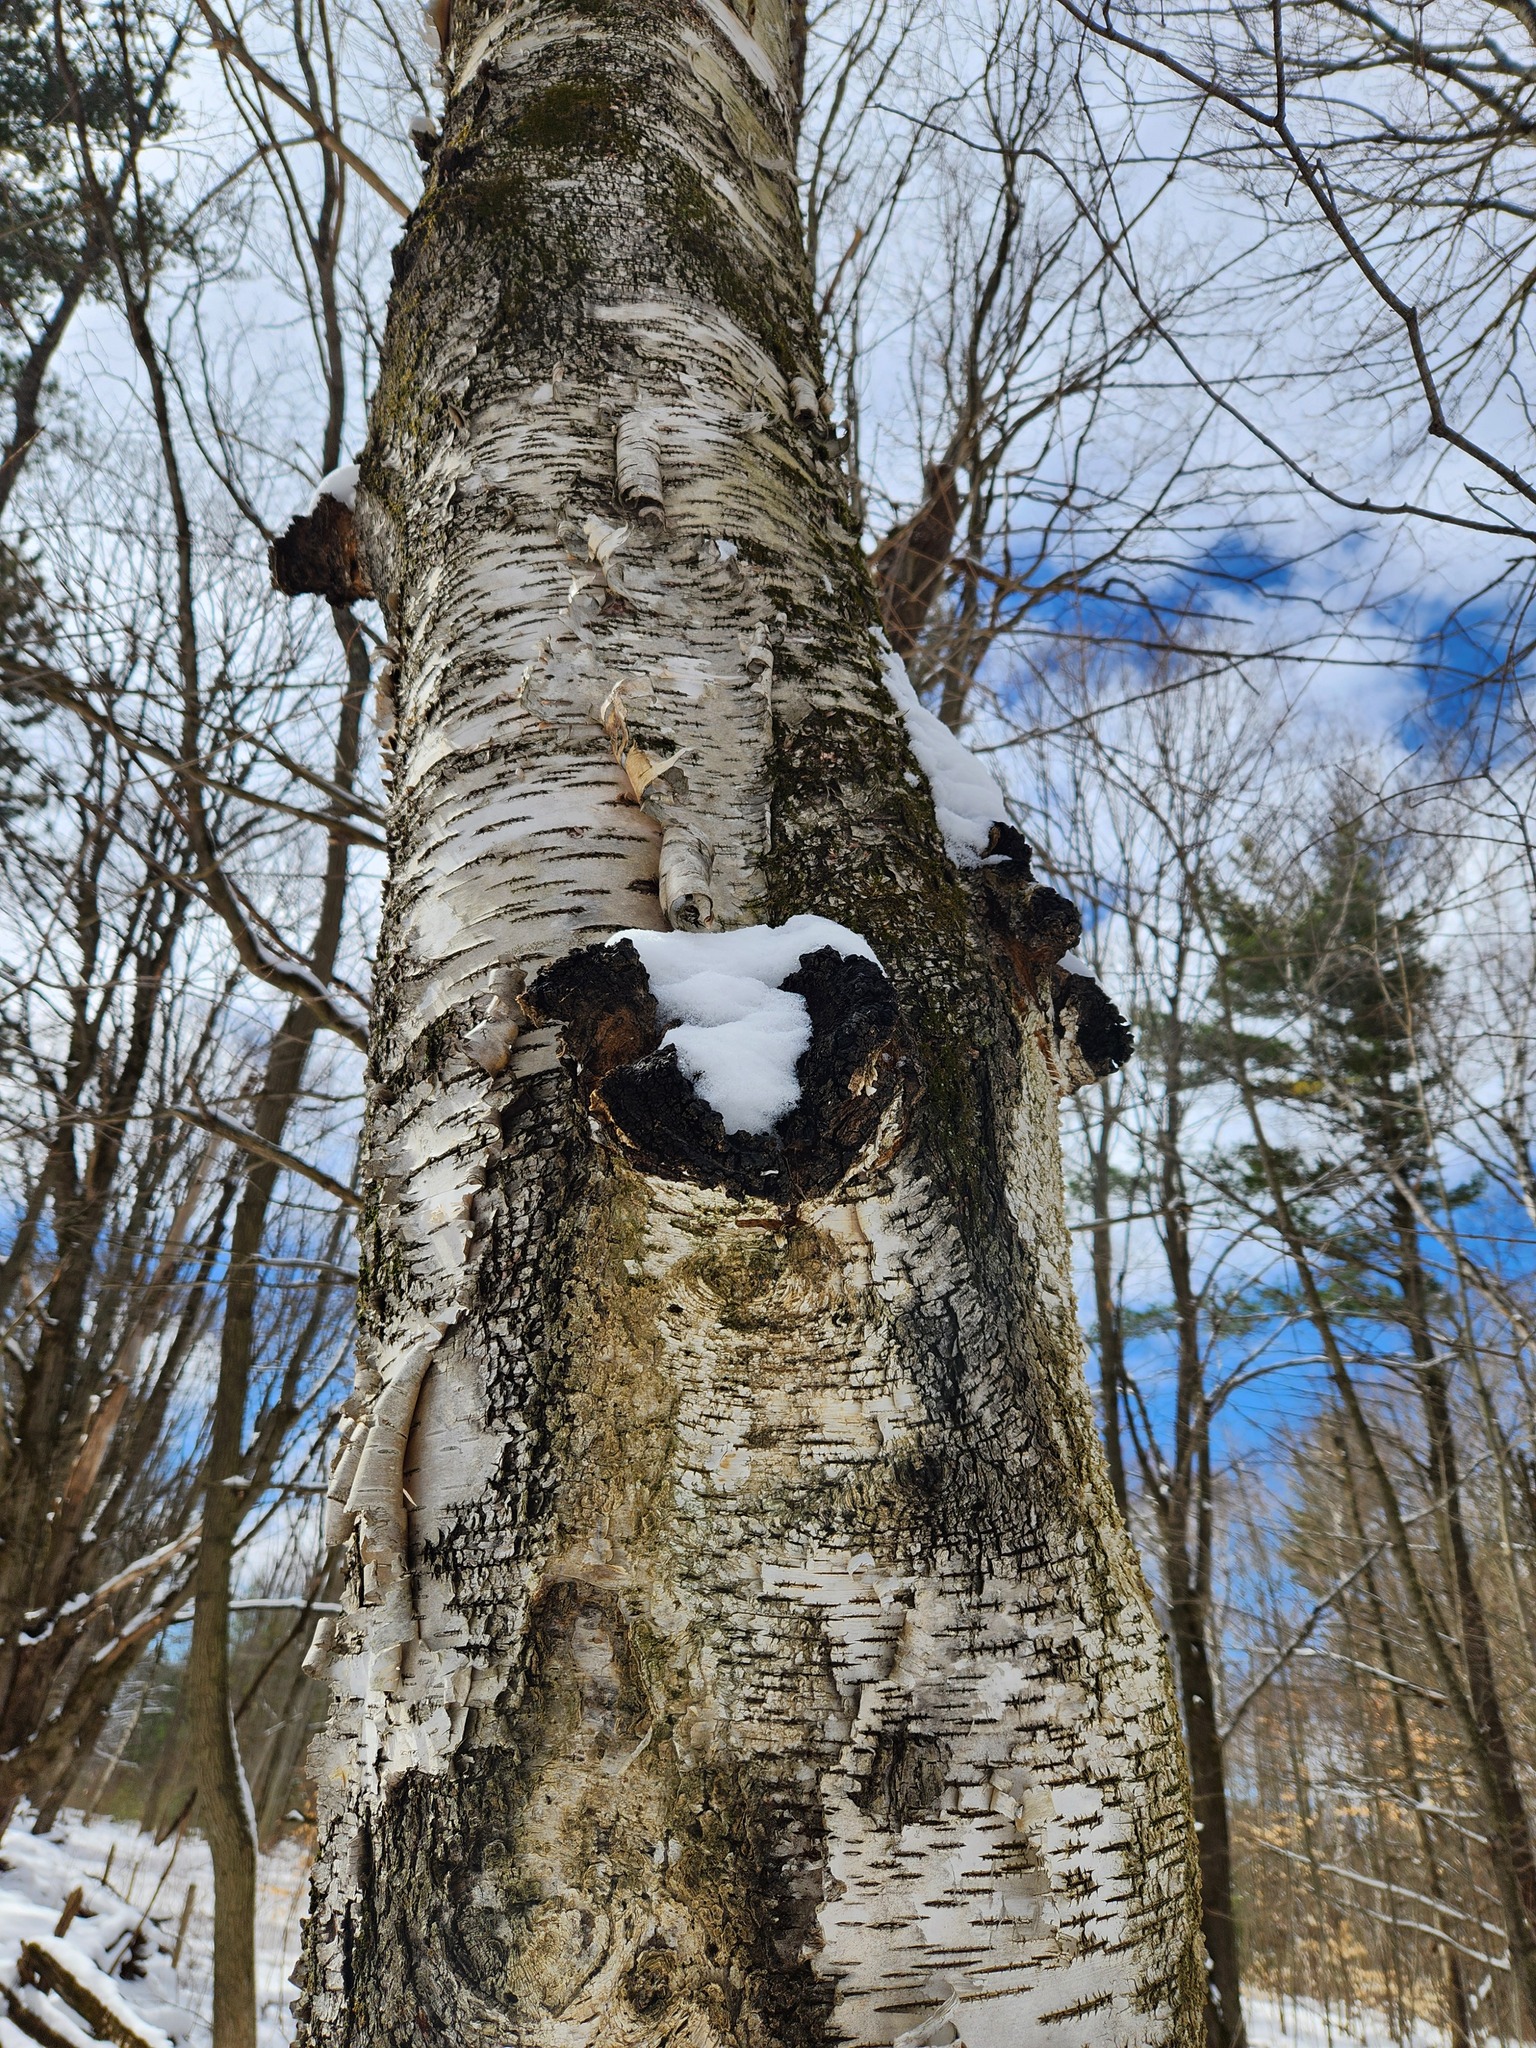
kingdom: Fungi
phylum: Basidiomycota
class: Agaricomycetes
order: Hymenochaetales
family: Hymenochaetaceae
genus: Inonotus
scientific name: Inonotus obliquus
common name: Chaga
